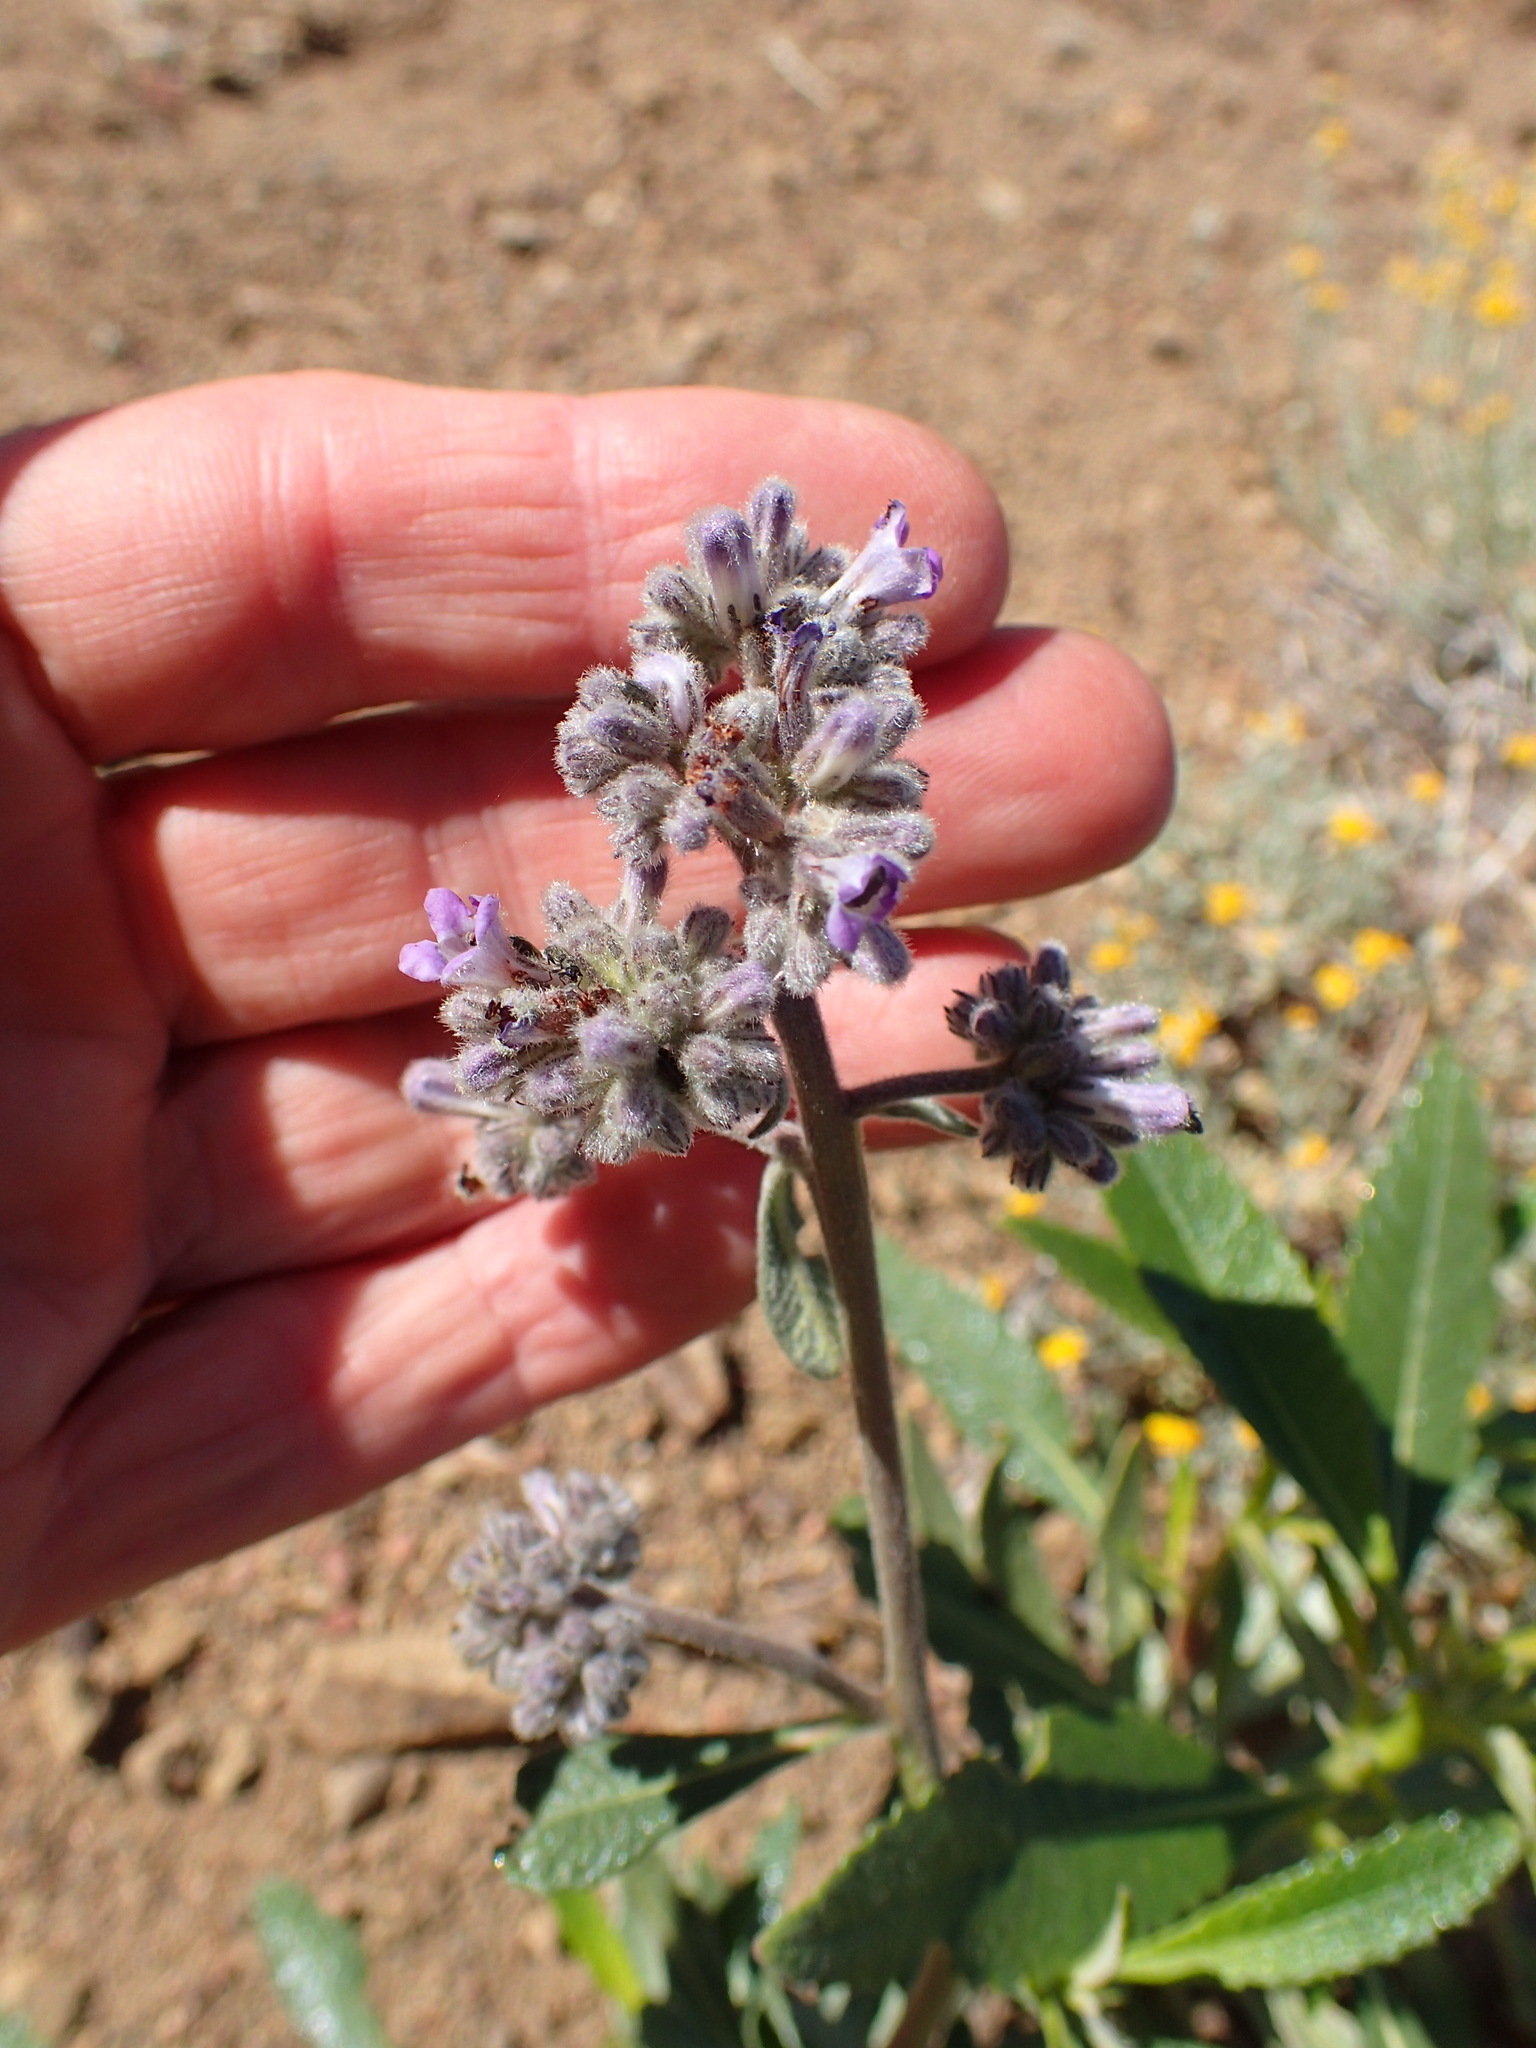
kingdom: Plantae
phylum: Tracheophyta
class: Magnoliopsida
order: Boraginales
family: Namaceae
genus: Eriodictyon
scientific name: Eriodictyon crassifolium
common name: Thick-leaf yerba-santa
